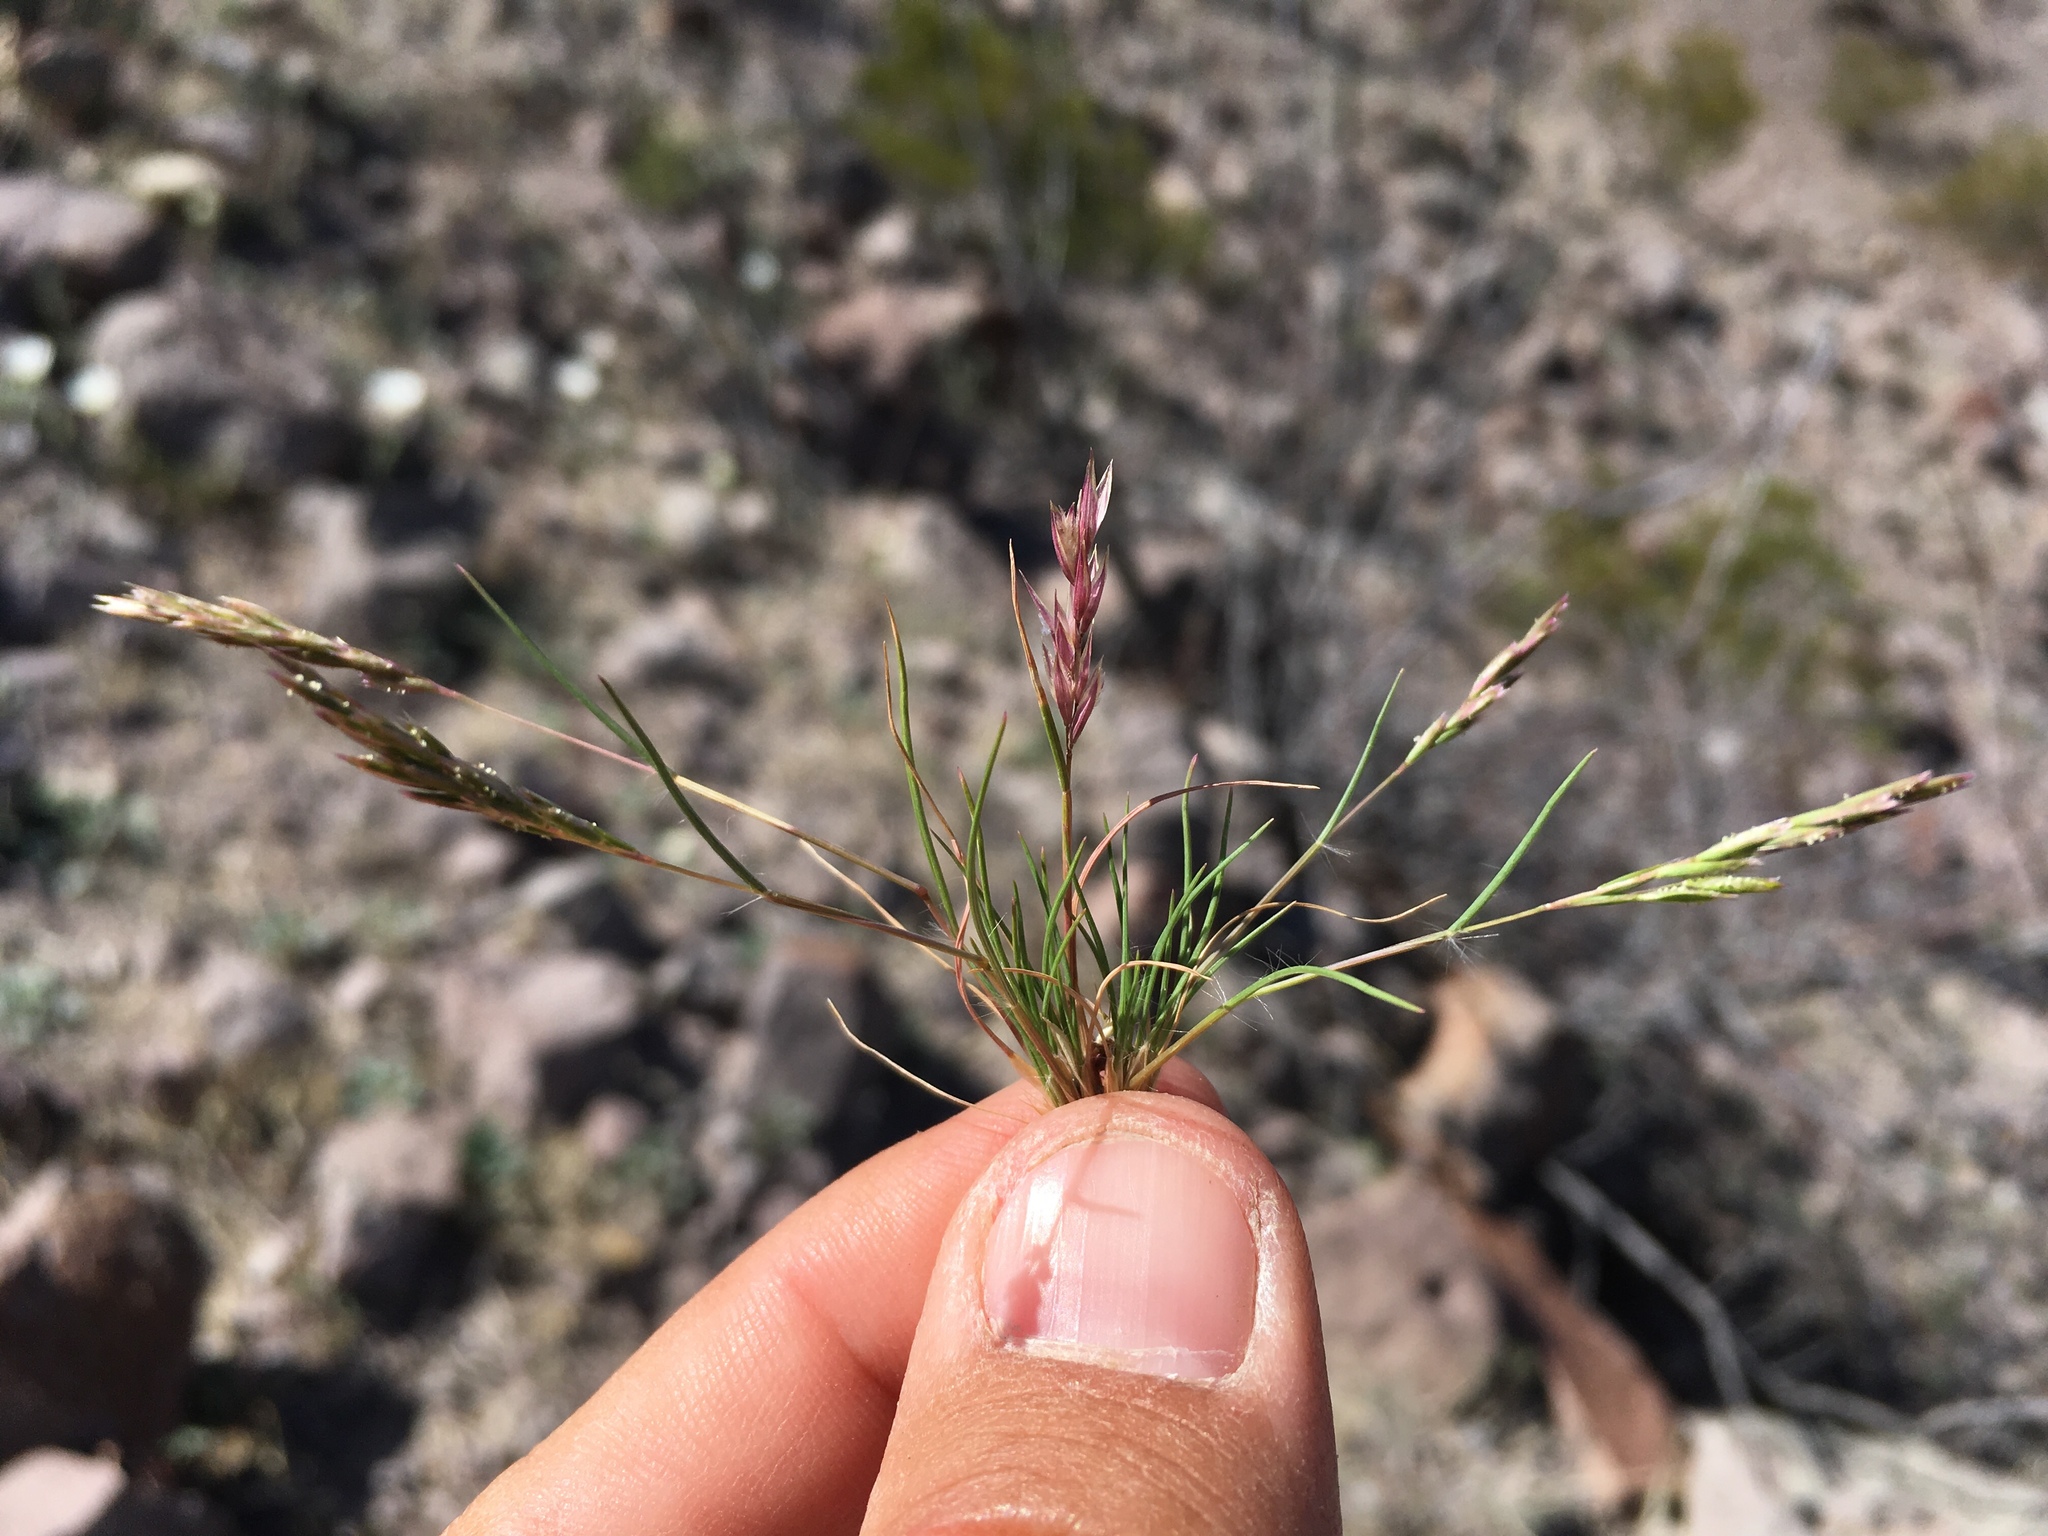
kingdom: Plantae
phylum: Tracheophyta
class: Liliopsida
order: Poales
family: Poaceae
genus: Schismus
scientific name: Schismus barbatus
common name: Kelch-grass
